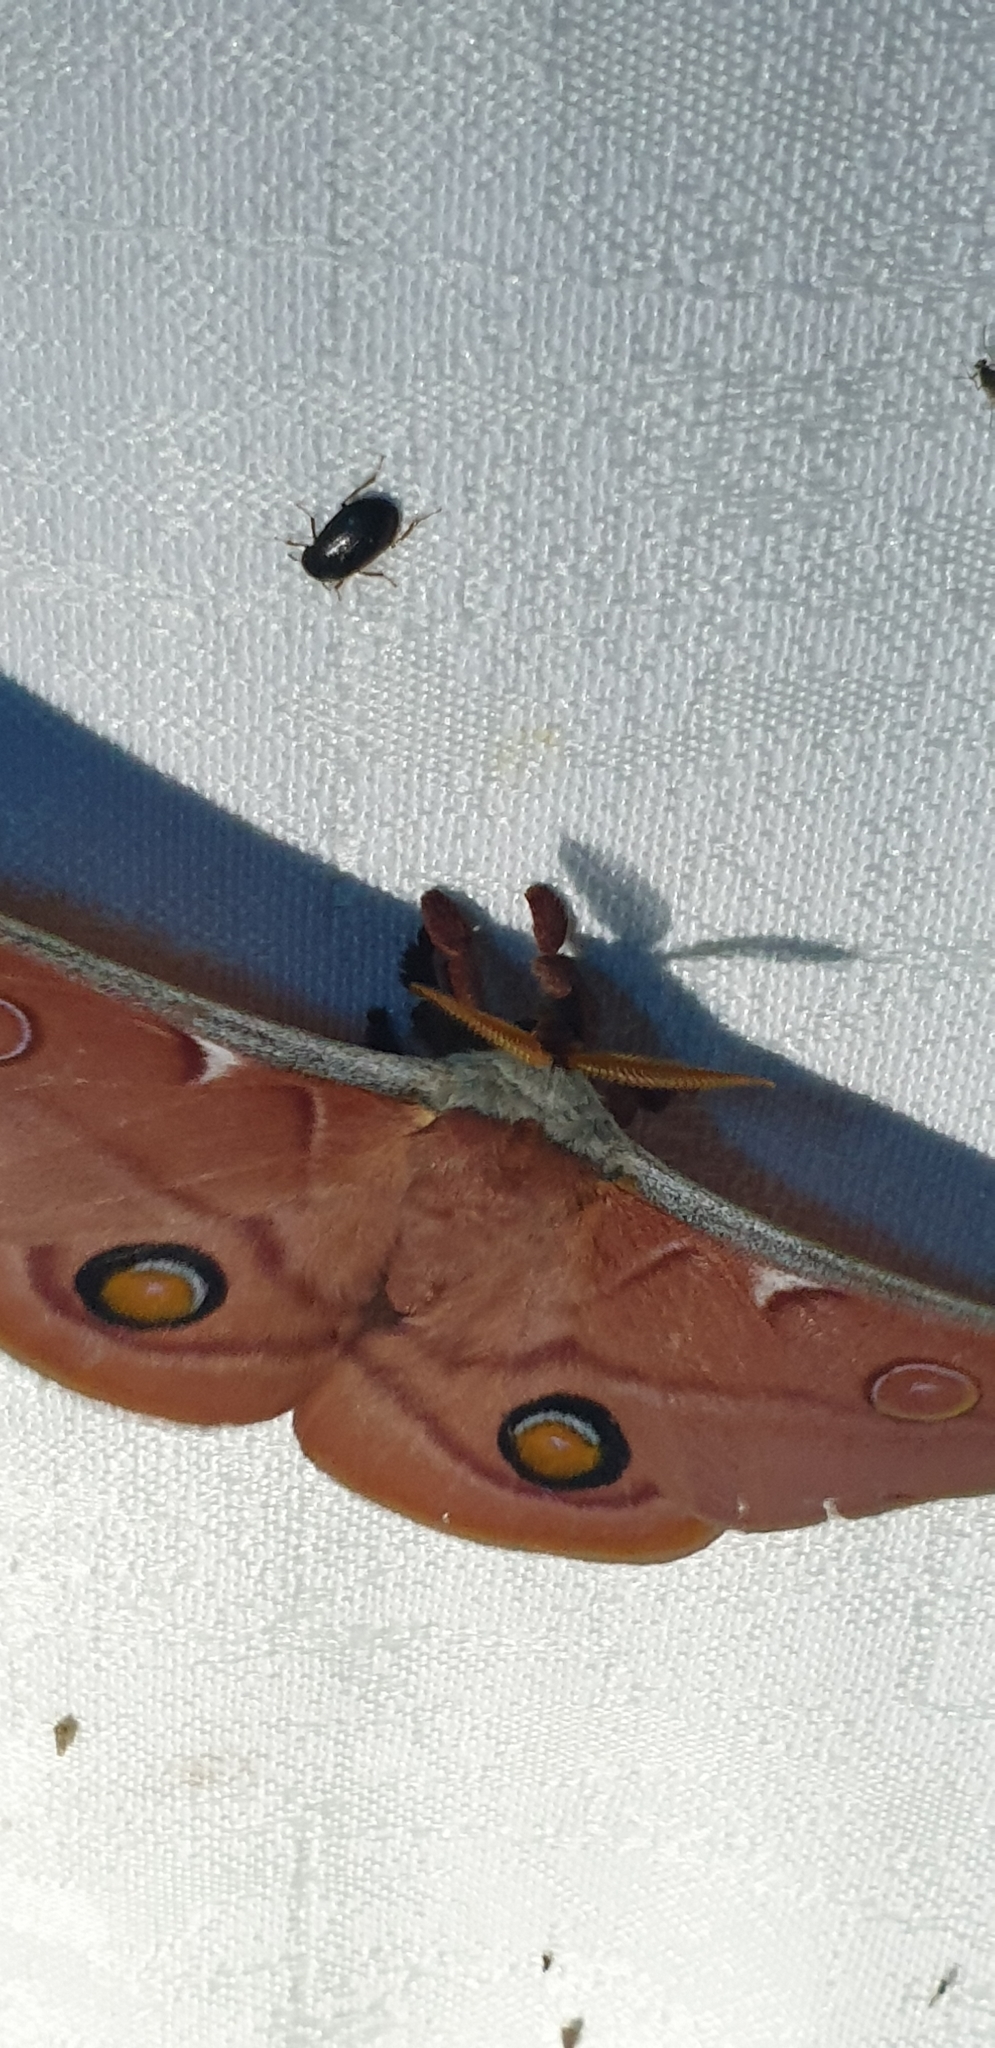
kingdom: Animalia
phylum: Arthropoda
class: Insecta
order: Lepidoptera
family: Saturniidae
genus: Opodiphthera
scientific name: Opodiphthera
